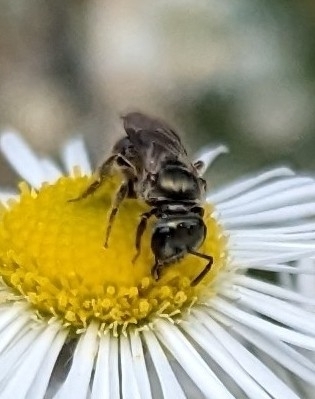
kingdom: Animalia
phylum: Arthropoda
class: Insecta
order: Hymenoptera
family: Halictidae
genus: Dialictus
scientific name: Dialictus
